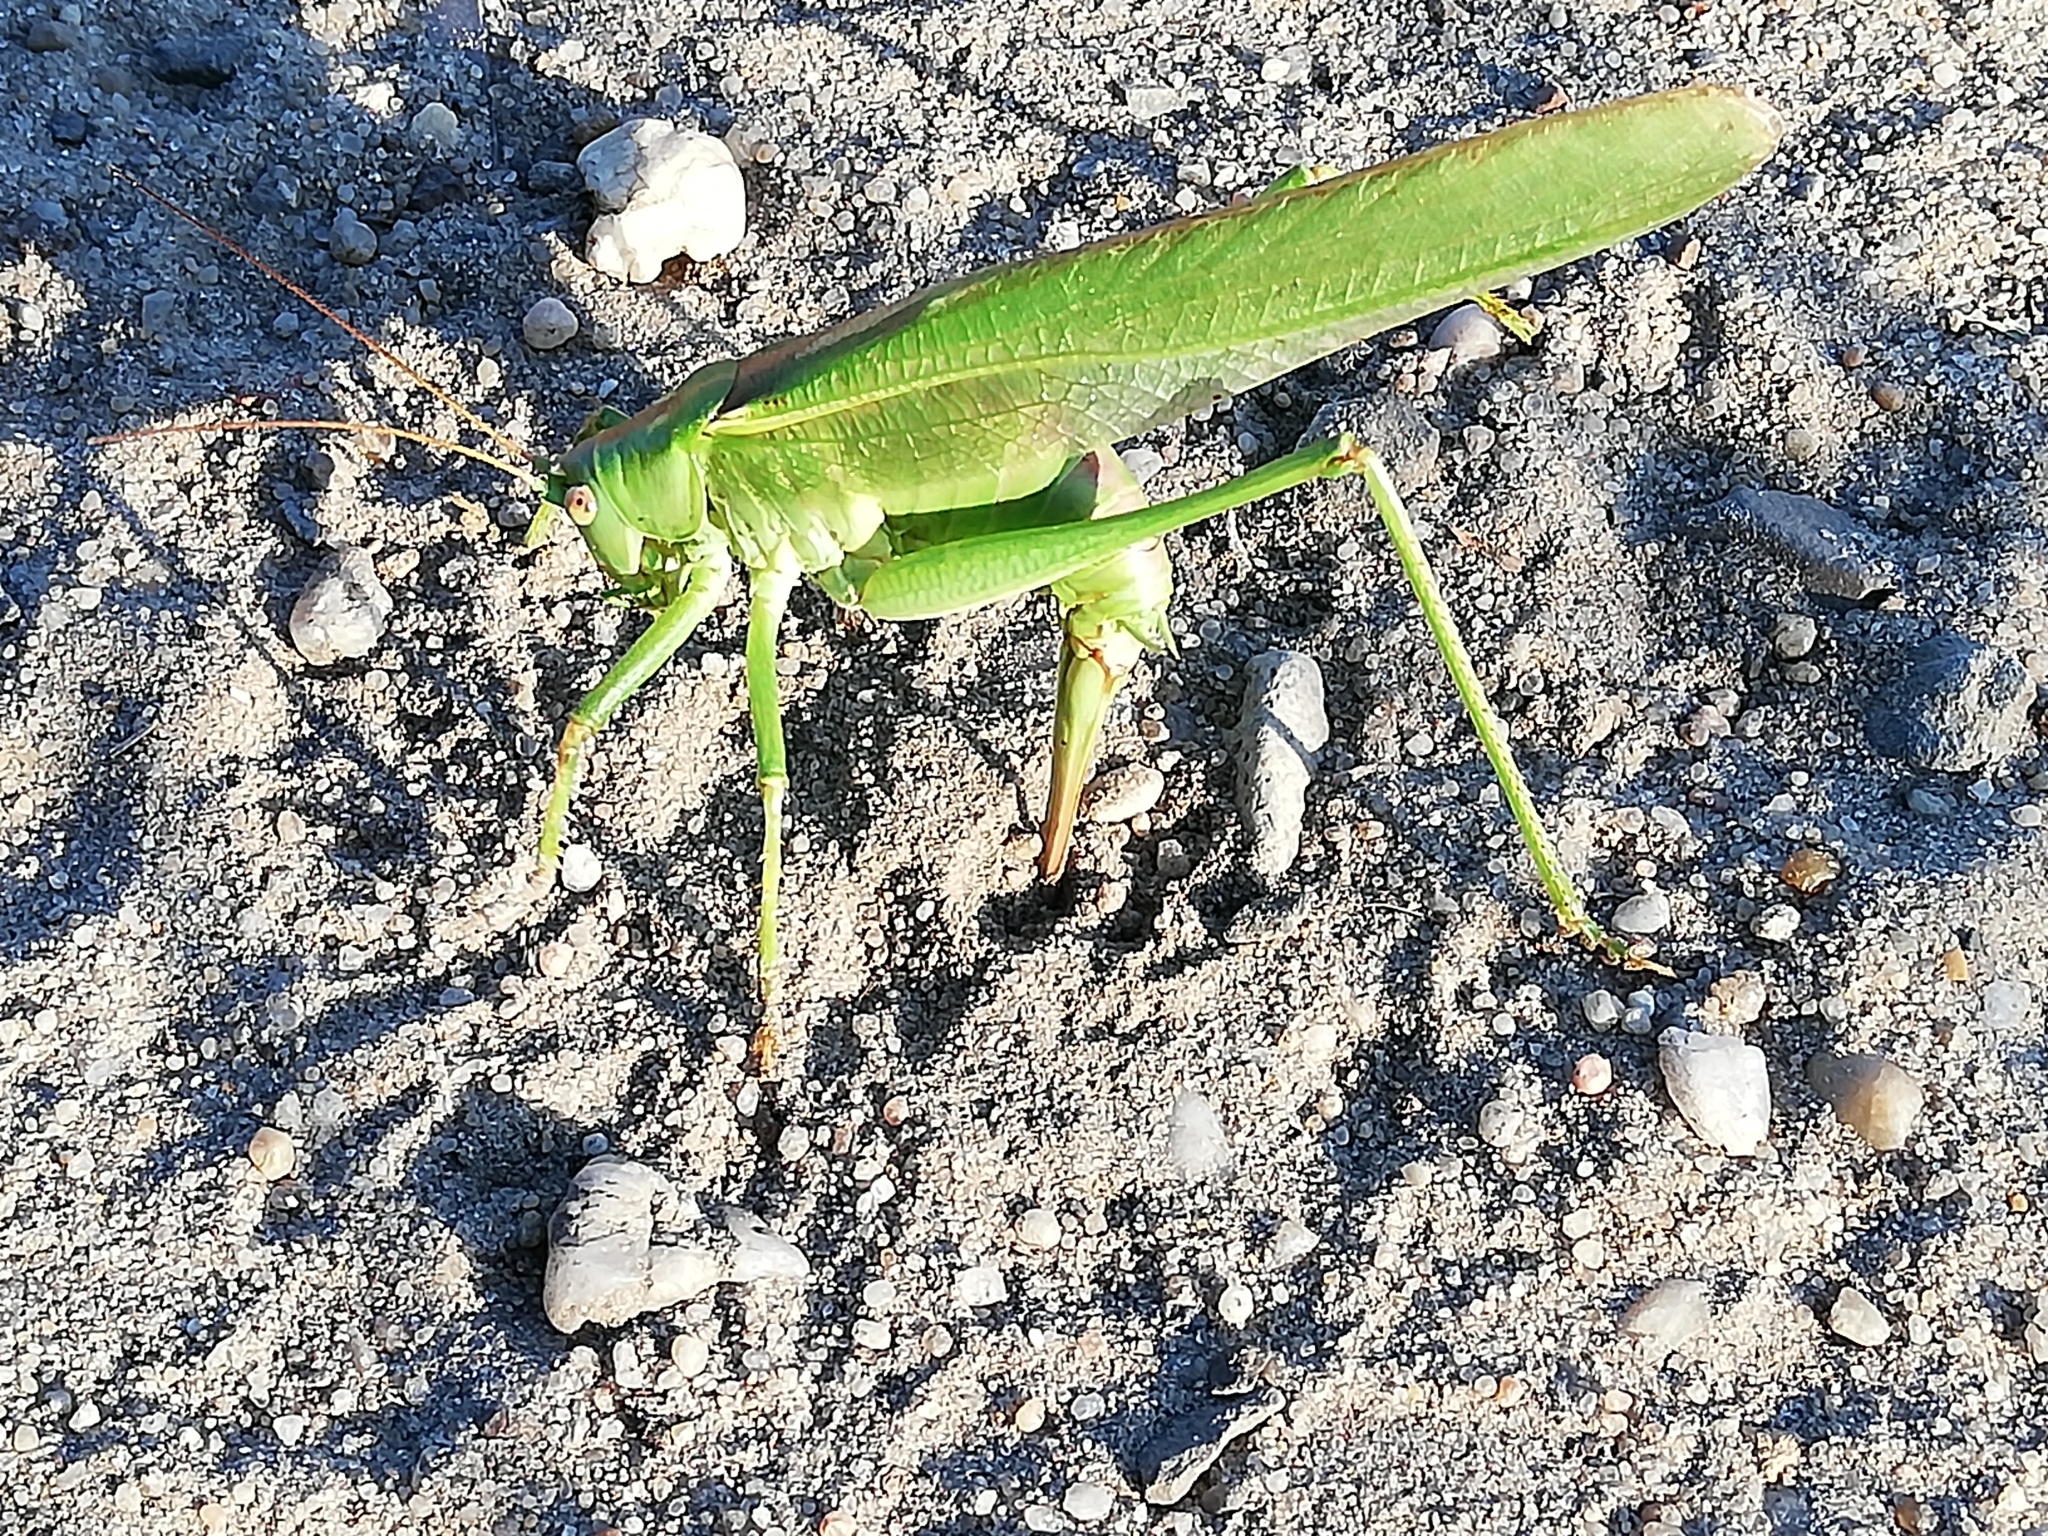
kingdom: Animalia
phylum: Arthropoda
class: Insecta
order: Orthoptera
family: Tettigoniidae
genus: Tettigonia
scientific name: Tettigonia viridissima
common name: Great green bush-cricket
